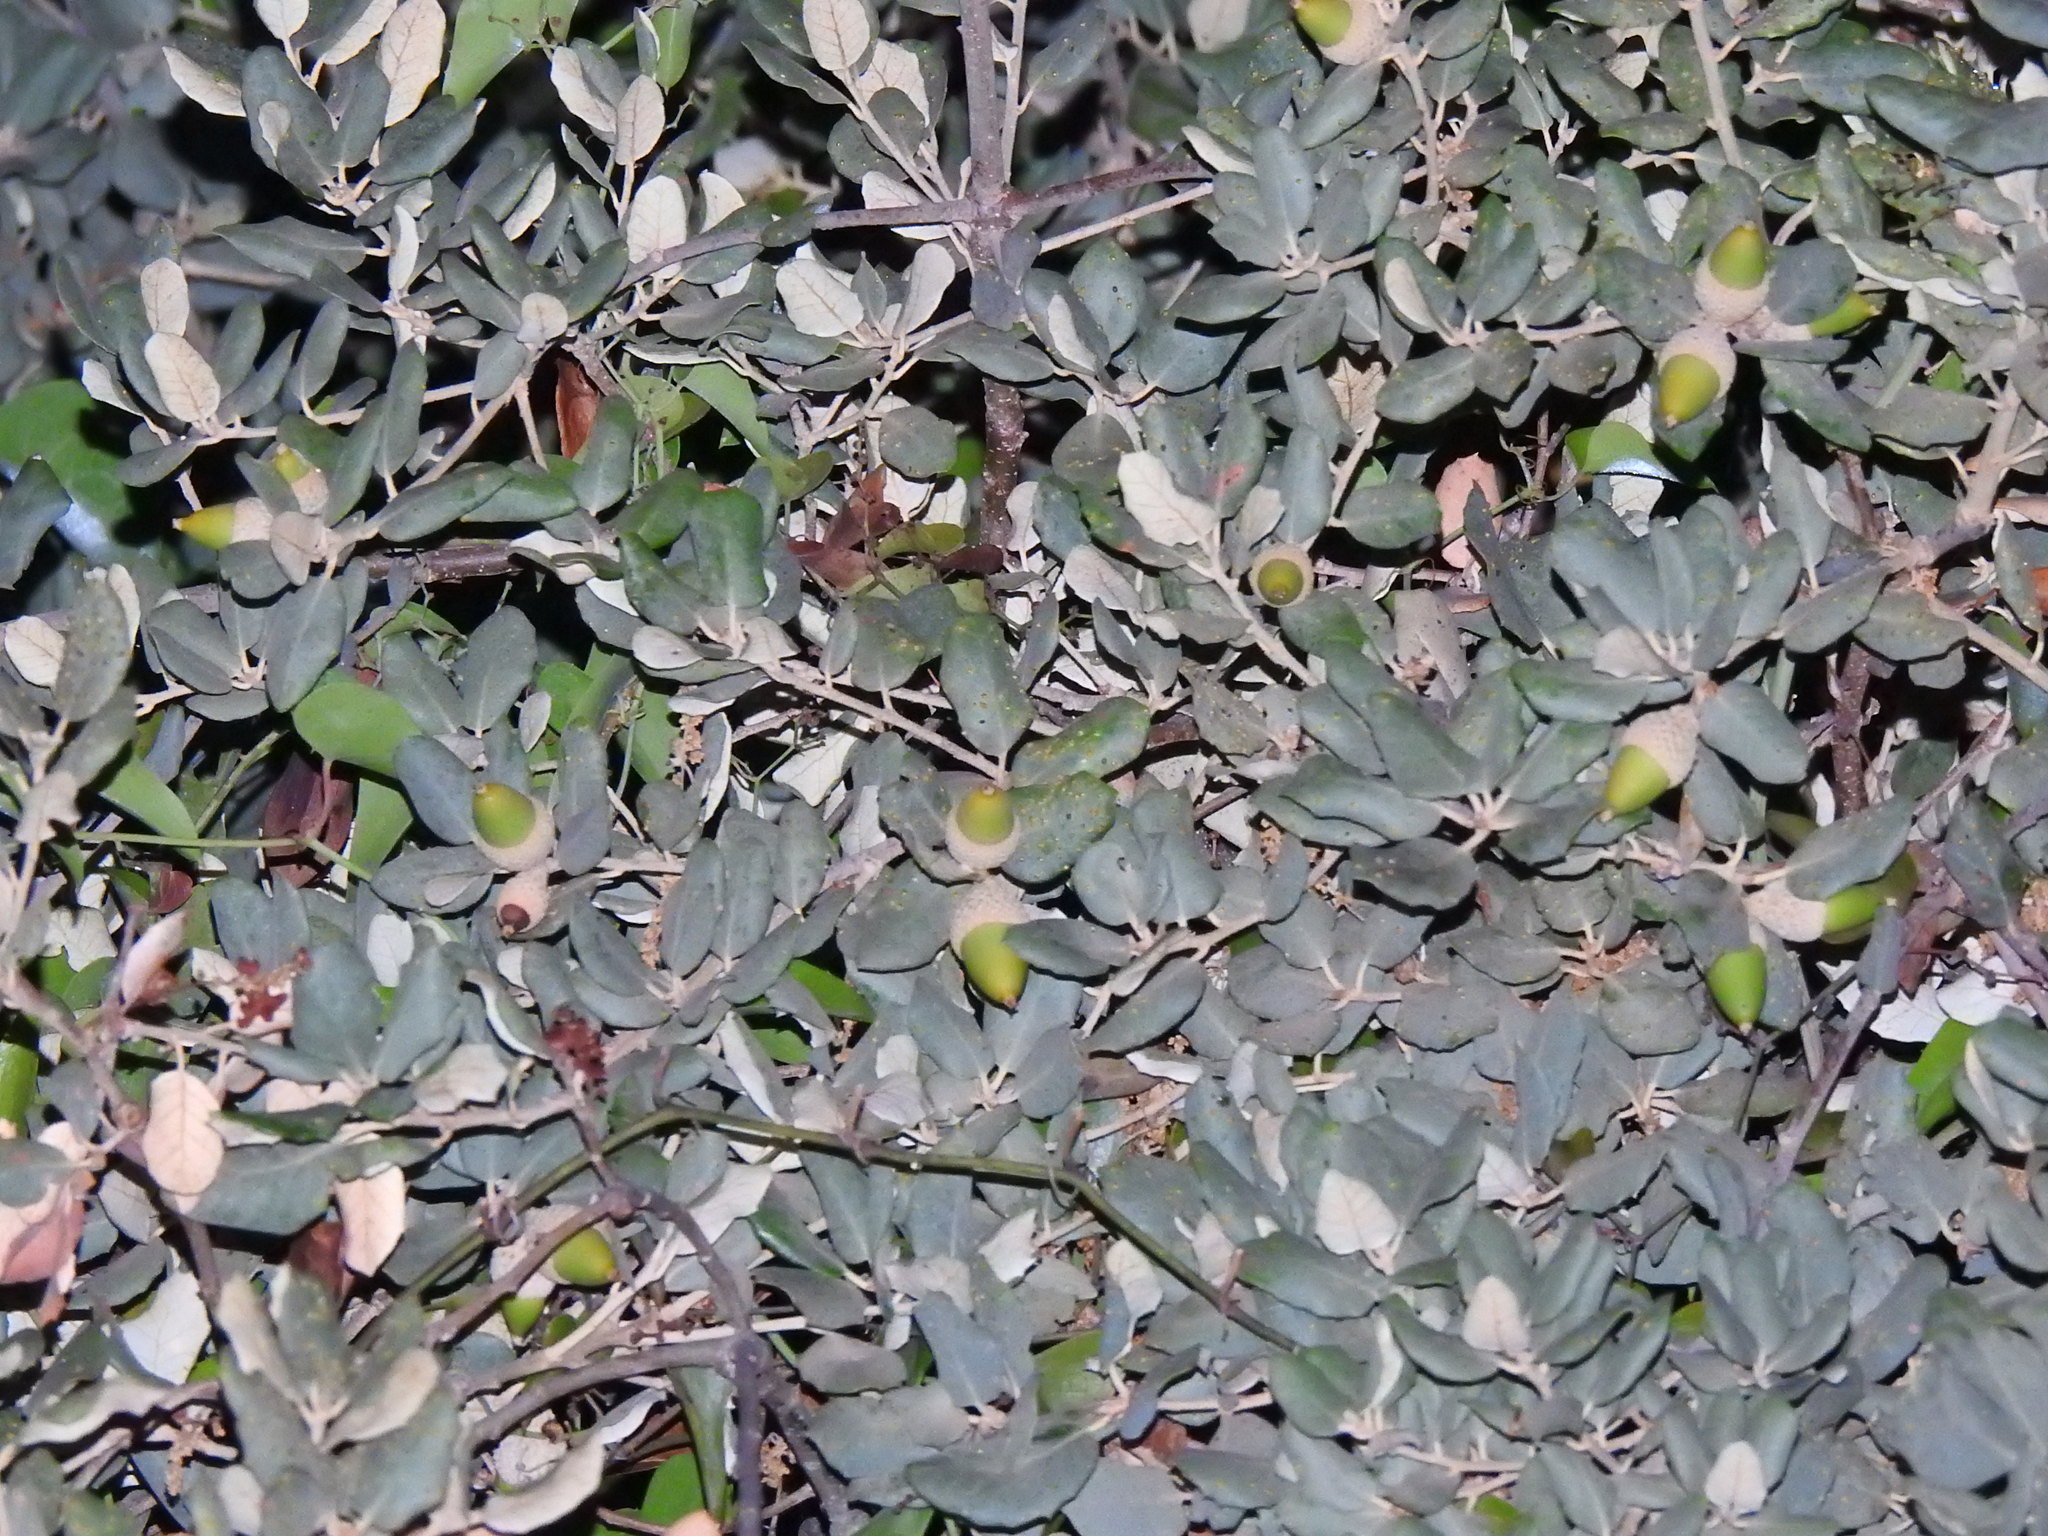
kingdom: Plantae
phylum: Tracheophyta
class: Magnoliopsida
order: Fagales
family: Fagaceae
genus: Quercus
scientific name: Quercus rotundifolia
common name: Holm oak
